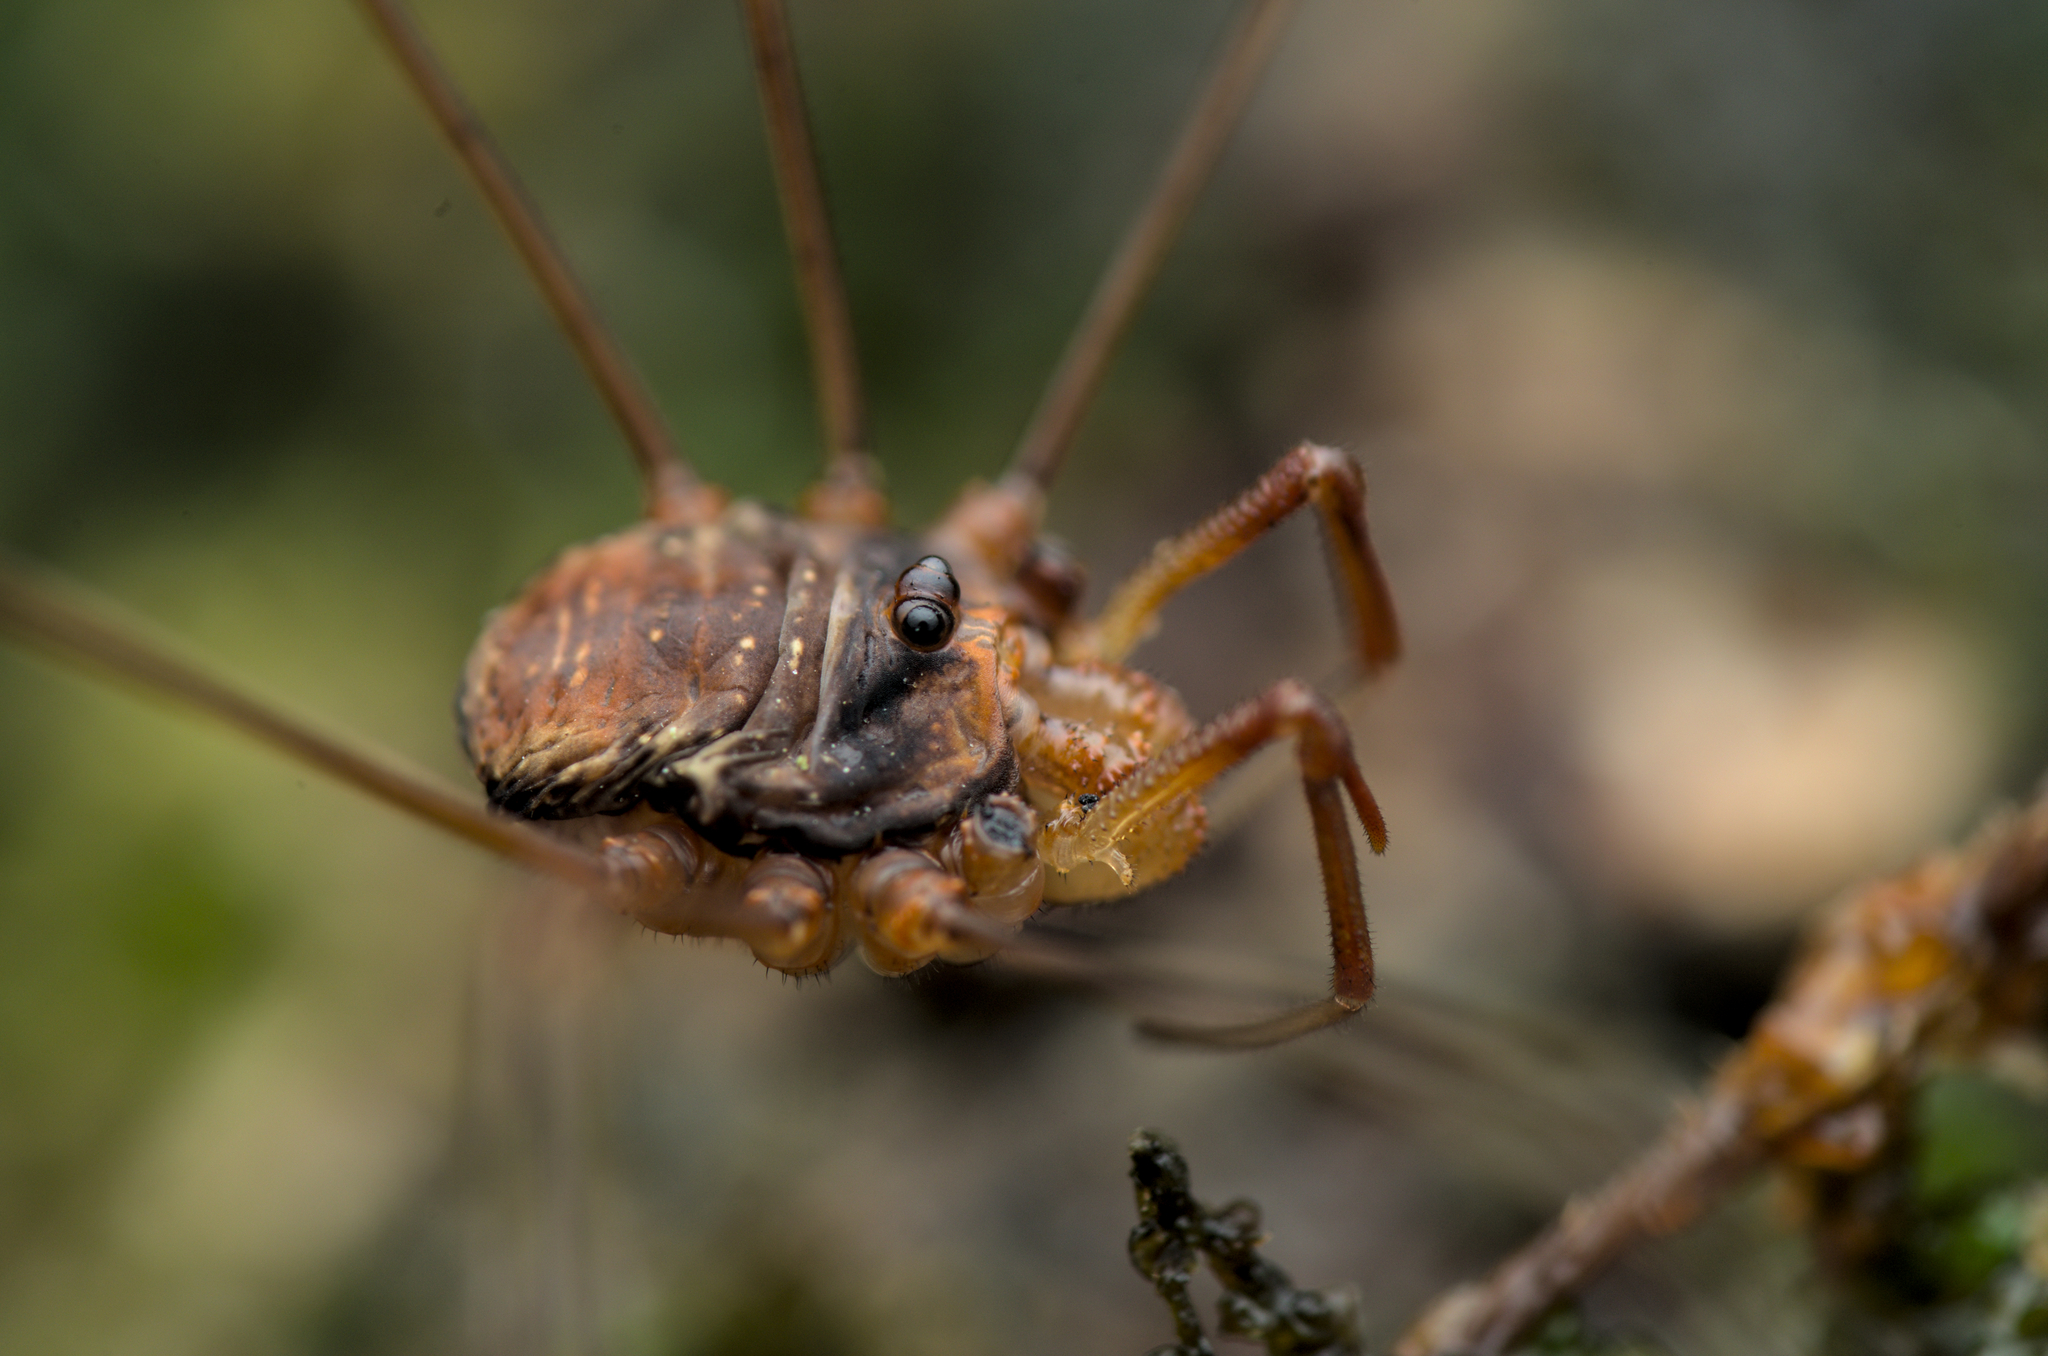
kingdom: Animalia
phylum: Arthropoda
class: Arachnida
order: Opiliones
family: Phalangiidae
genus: Dicranopalpus
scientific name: Dicranopalpus ramosus
